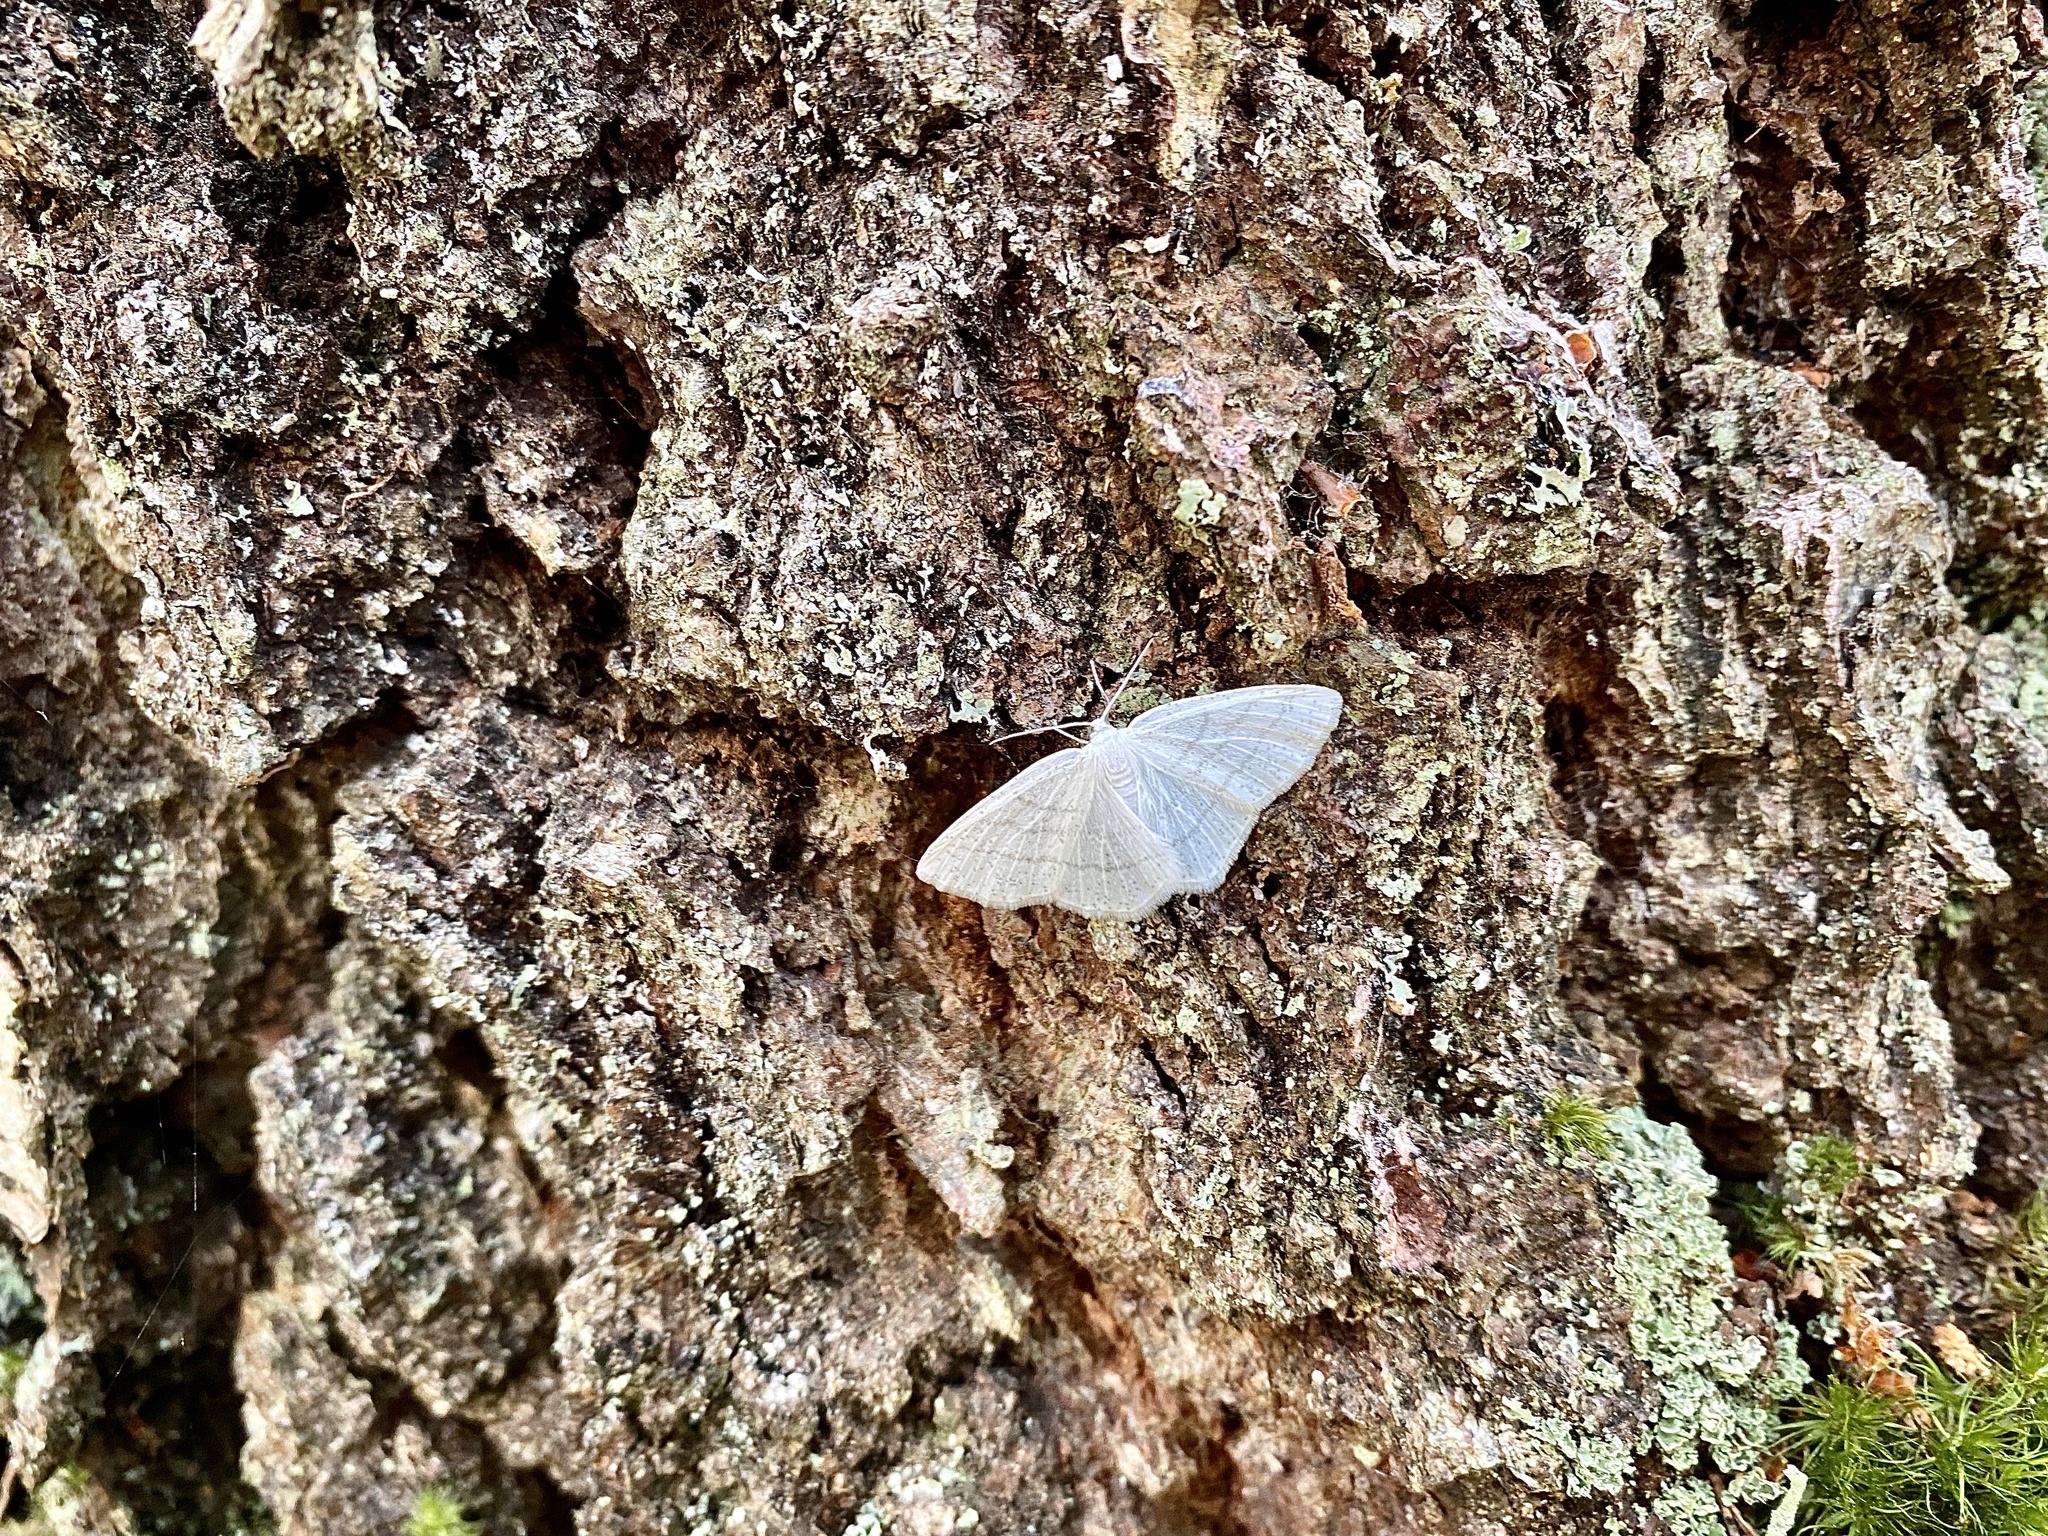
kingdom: Animalia
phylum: Arthropoda
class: Insecta
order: Lepidoptera
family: Geometridae
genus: Cabera
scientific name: Cabera pusaria
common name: Common white wave
